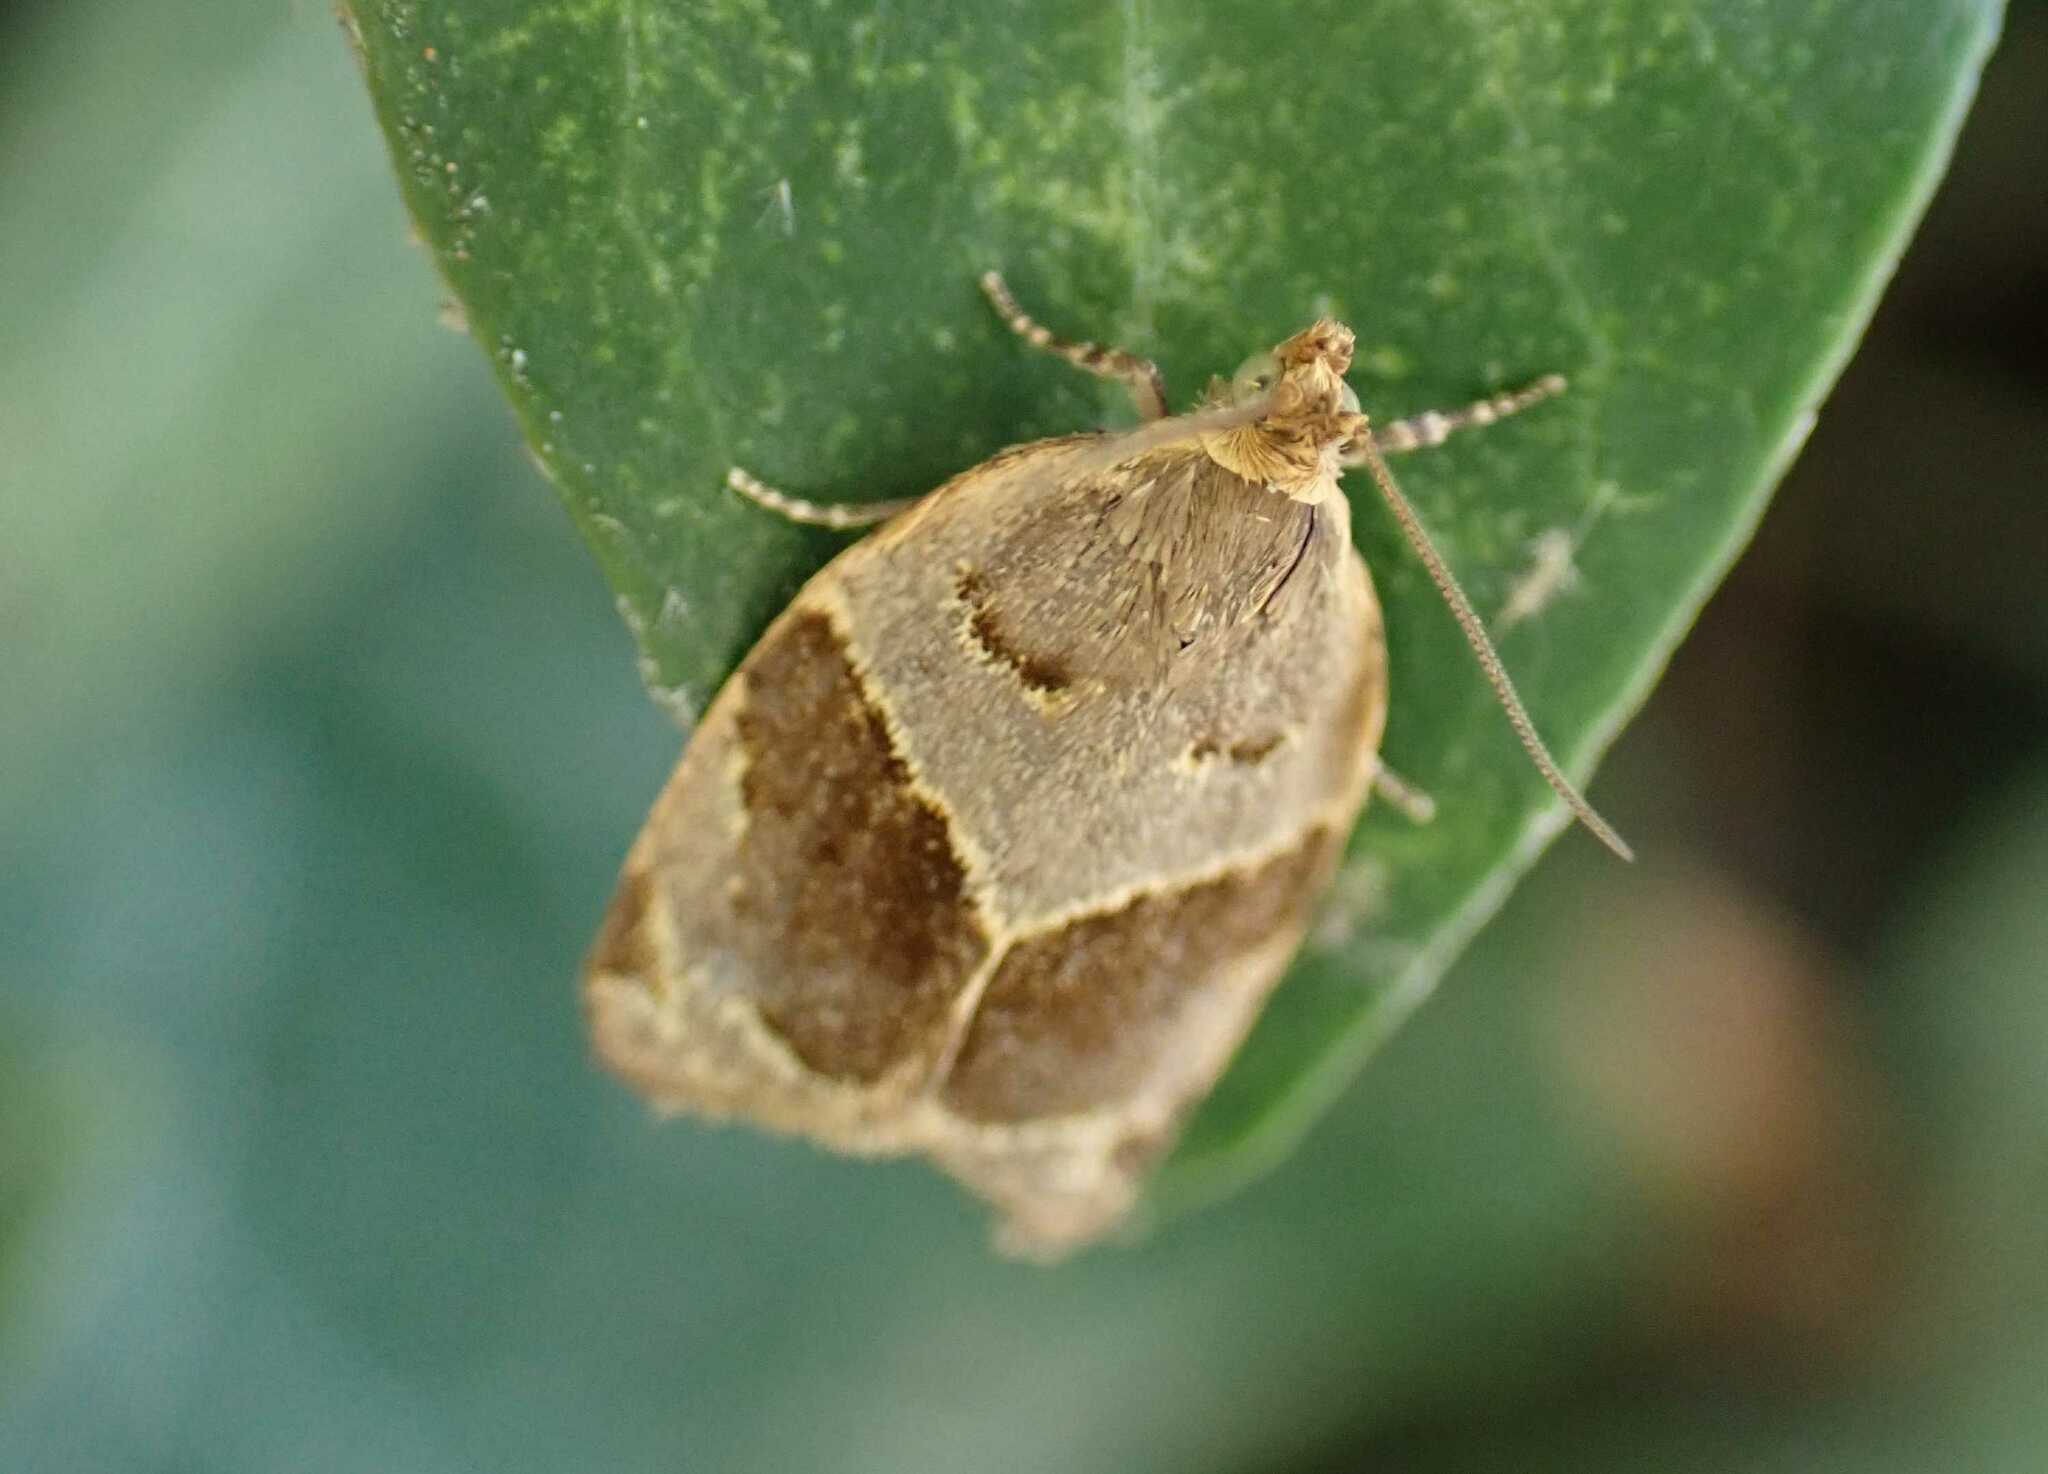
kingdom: Animalia
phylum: Arthropoda
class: Insecta
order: Lepidoptera
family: Tortricidae
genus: Clepsis
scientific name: Clepsis dumicolana
